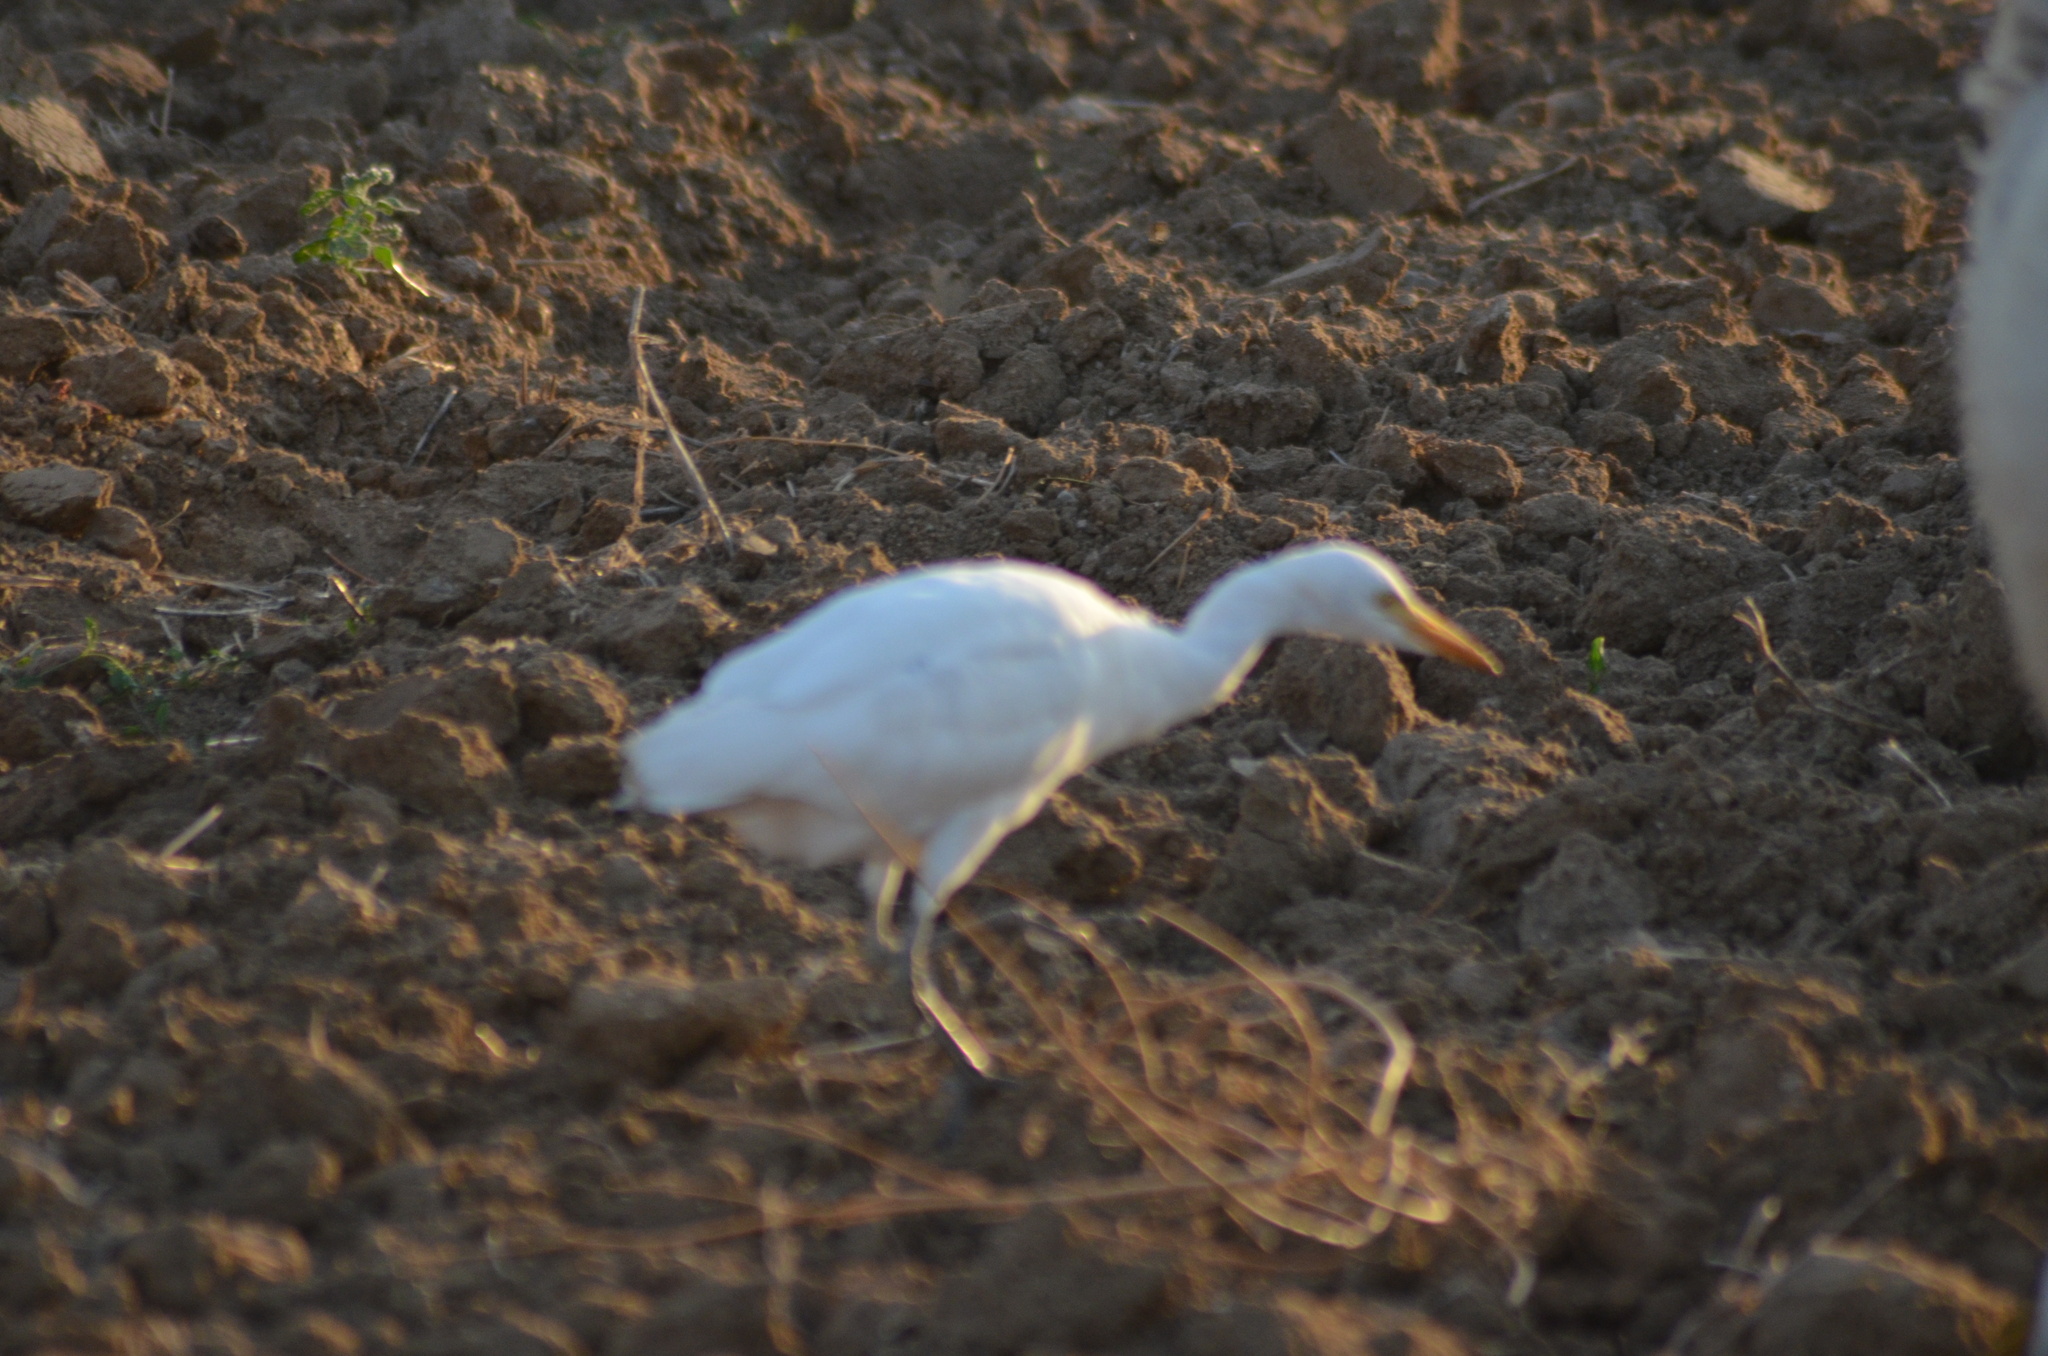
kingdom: Animalia
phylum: Chordata
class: Aves
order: Pelecaniformes
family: Ardeidae
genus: Bubulcus
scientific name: Bubulcus ibis
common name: Cattle egret
